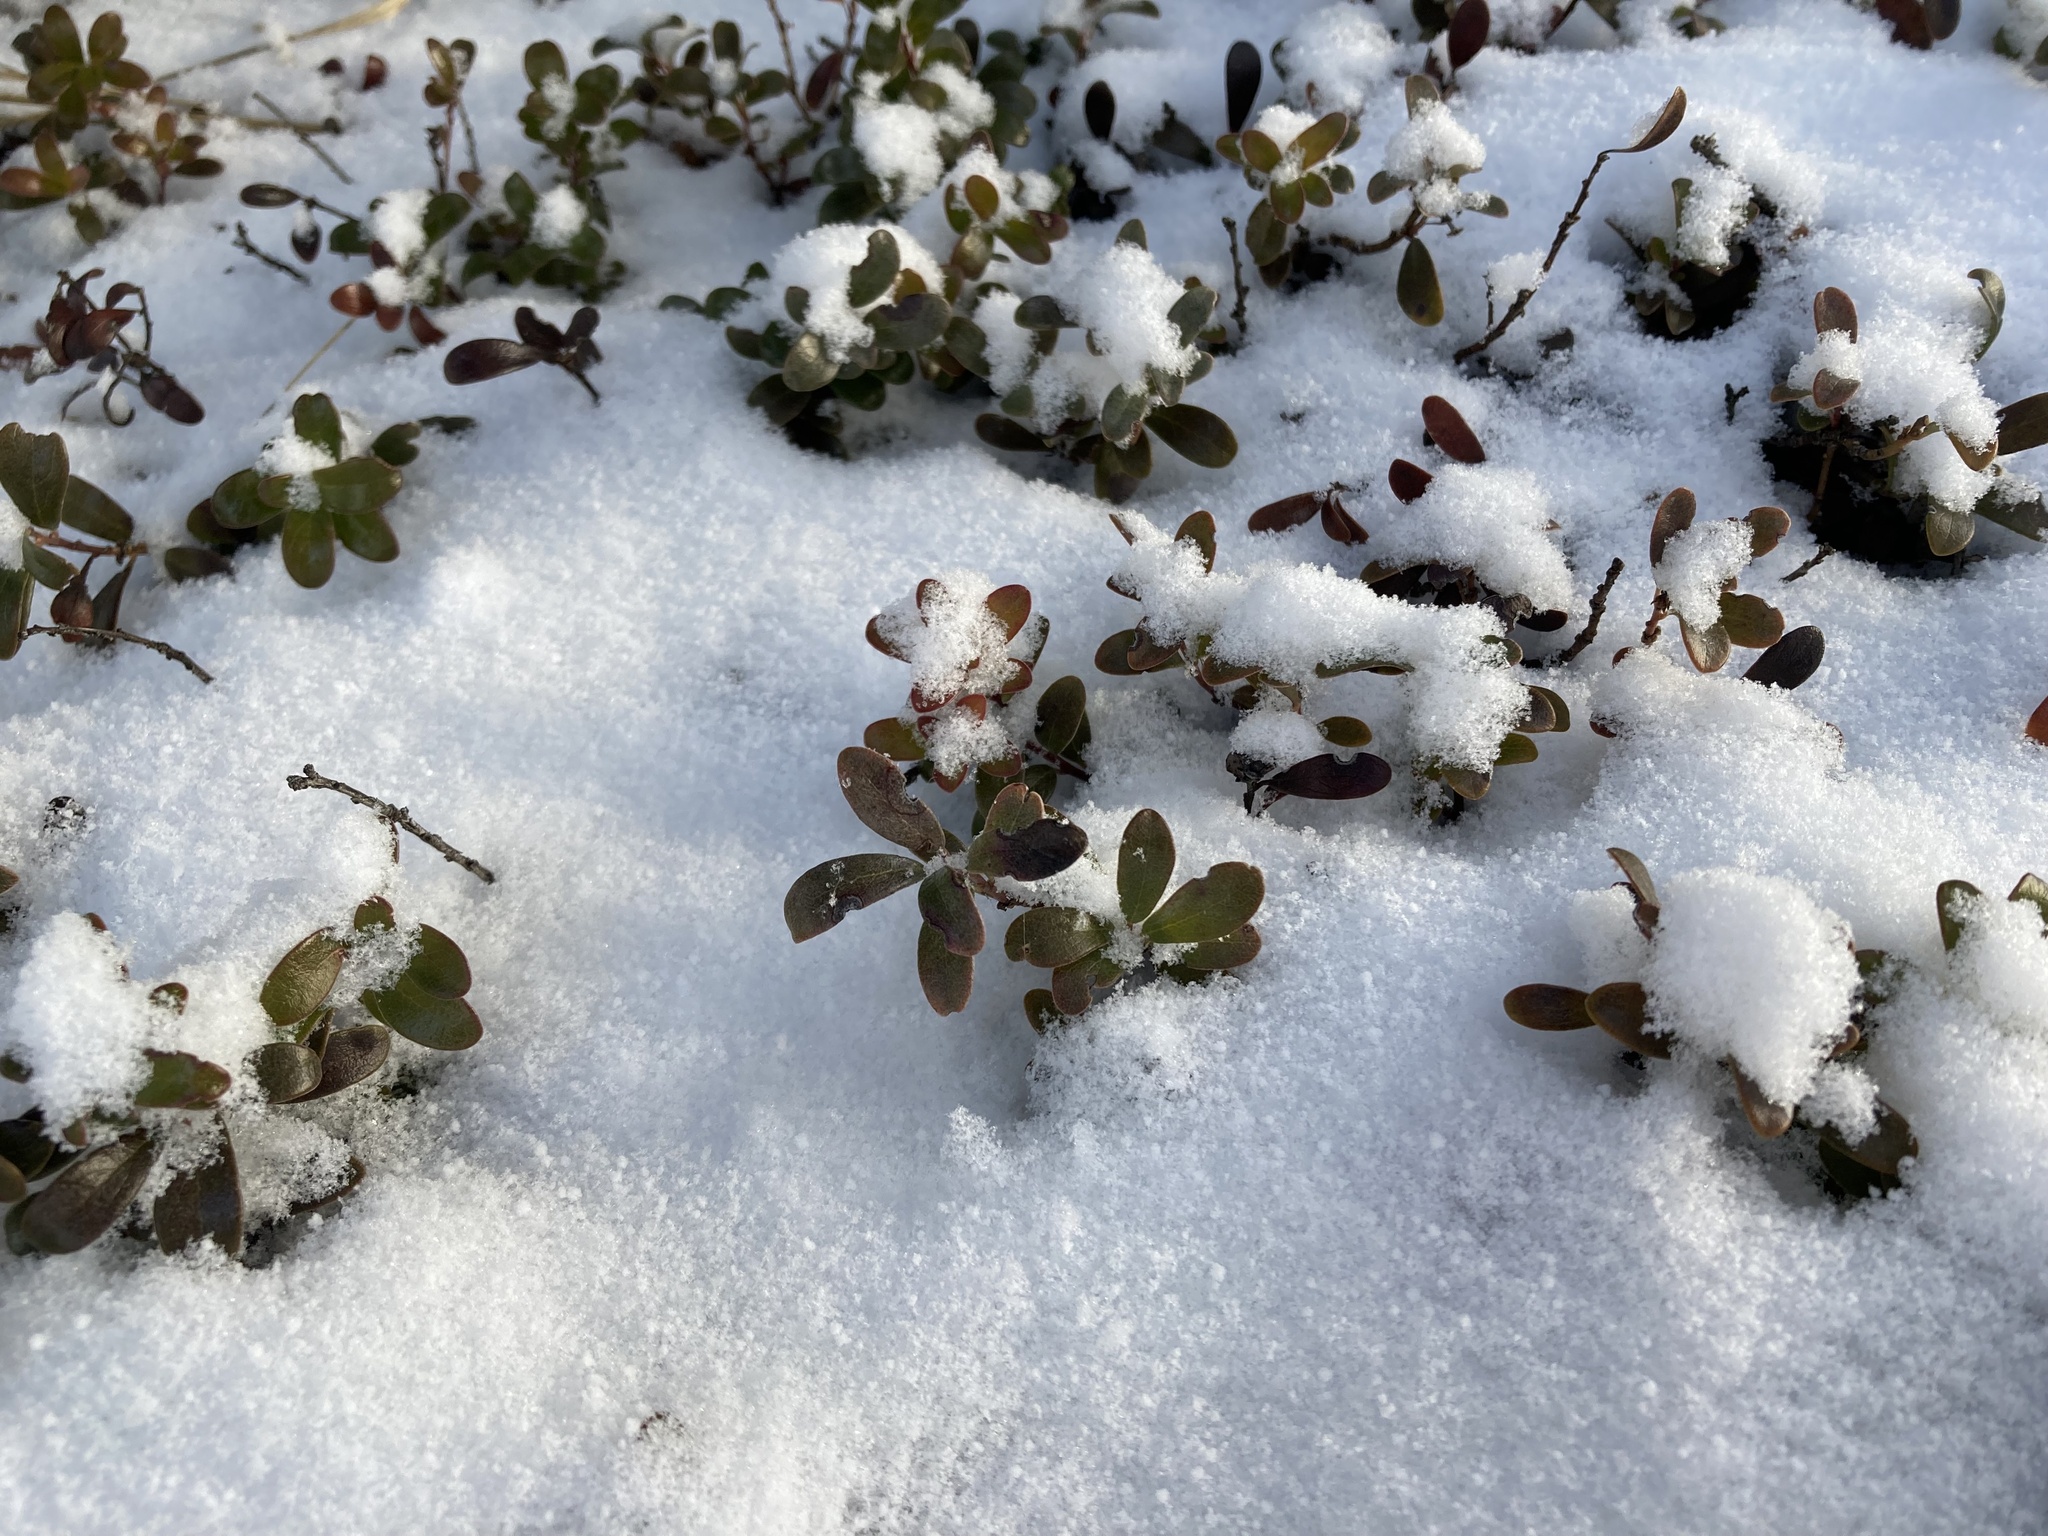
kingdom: Plantae
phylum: Tracheophyta
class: Magnoliopsida
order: Ericales
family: Ericaceae
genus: Arctostaphylos
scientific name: Arctostaphylos uva-ursi
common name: Bearberry
